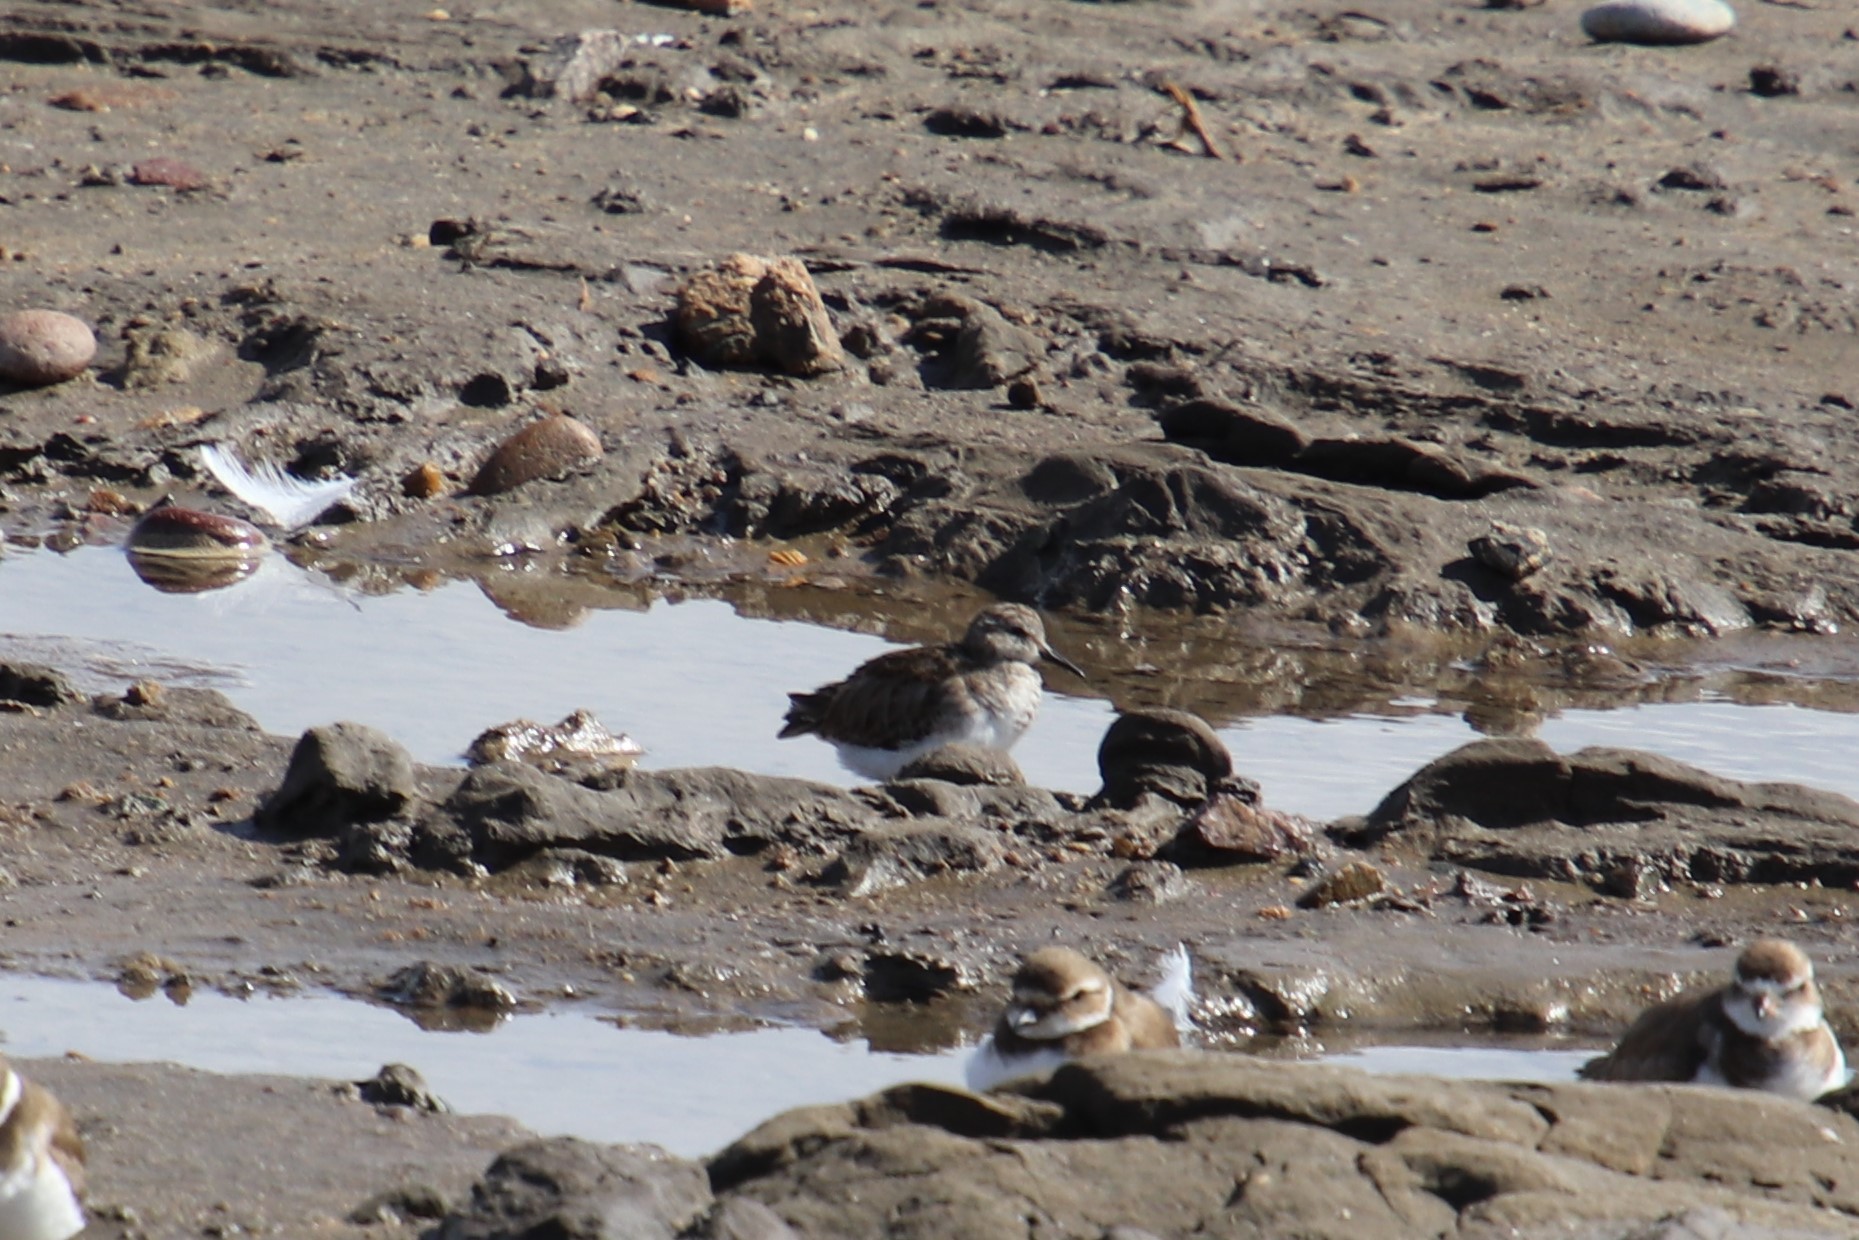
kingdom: Animalia
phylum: Chordata
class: Aves
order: Charadriiformes
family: Scolopacidae
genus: Calidris
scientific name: Calidris minutilla
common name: Least sandpiper
